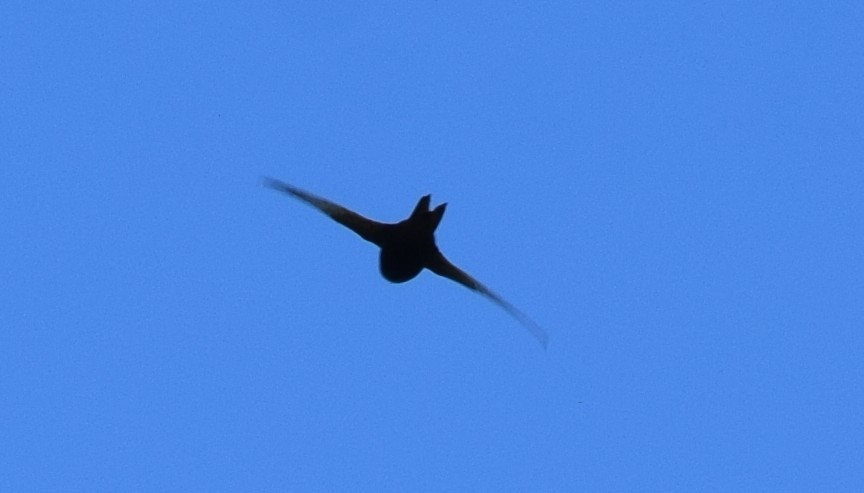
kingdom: Animalia
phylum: Chordata
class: Aves
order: Apodiformes
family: Apodidae
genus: Apus
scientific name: Apus apus
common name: Common swift
